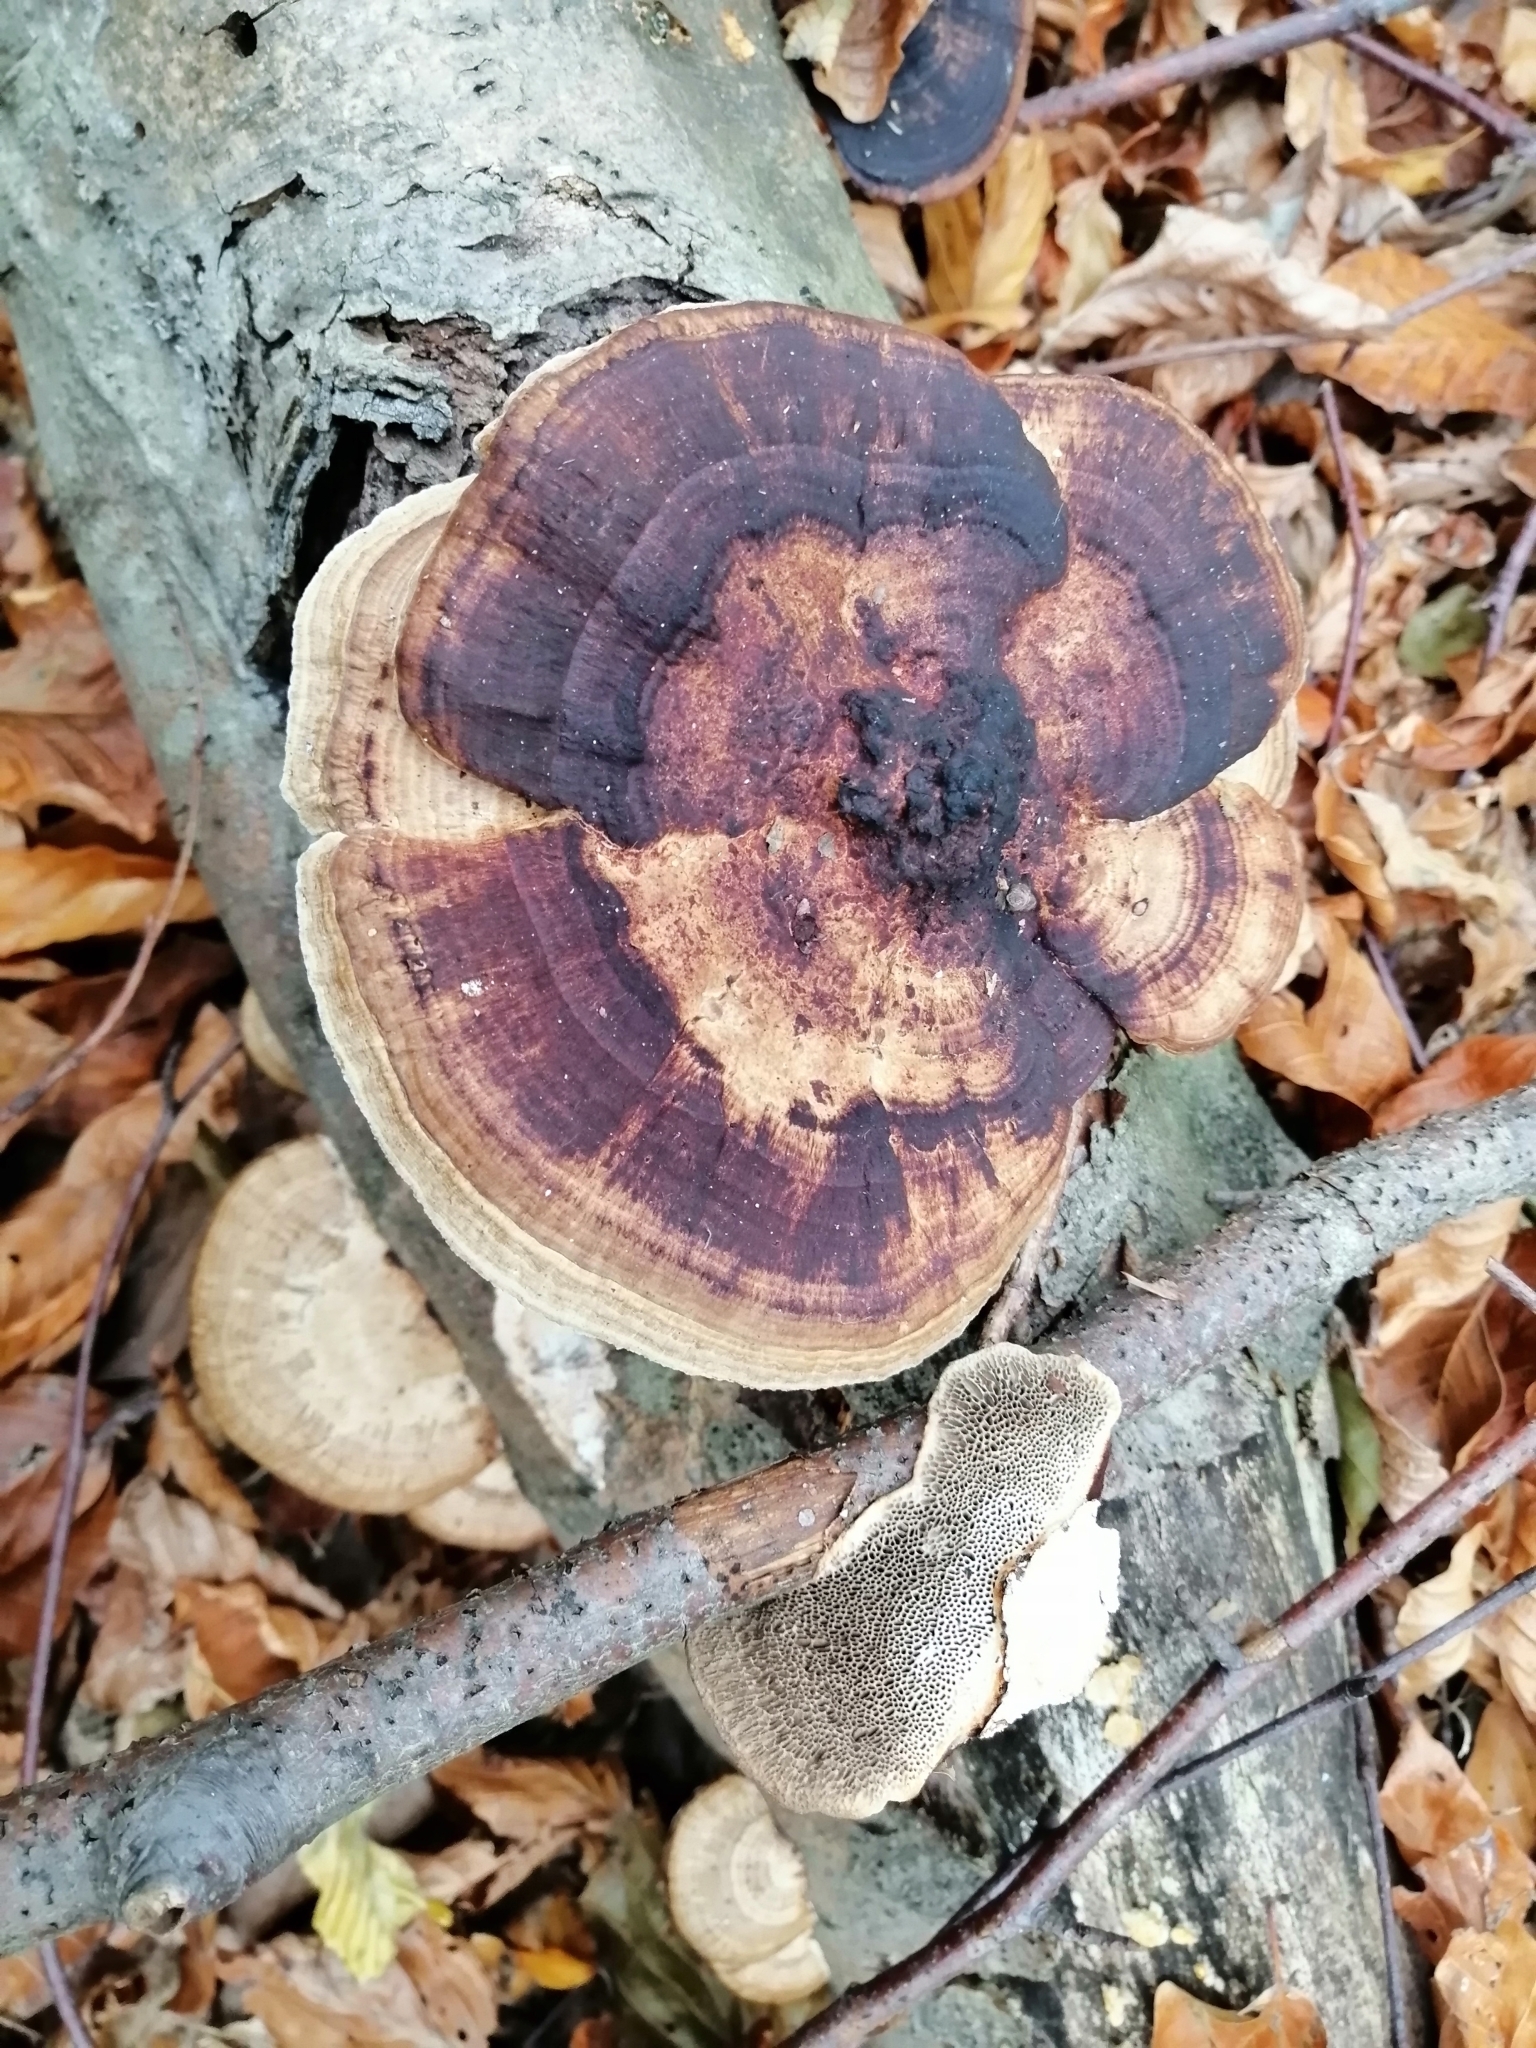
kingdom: Fungi
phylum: Basidiomycota
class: Agaricomycetes
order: Polyporales
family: Polyporaceae
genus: Daedaleopsis
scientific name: Daedaleopsis confragosa
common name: Blushing bracket
